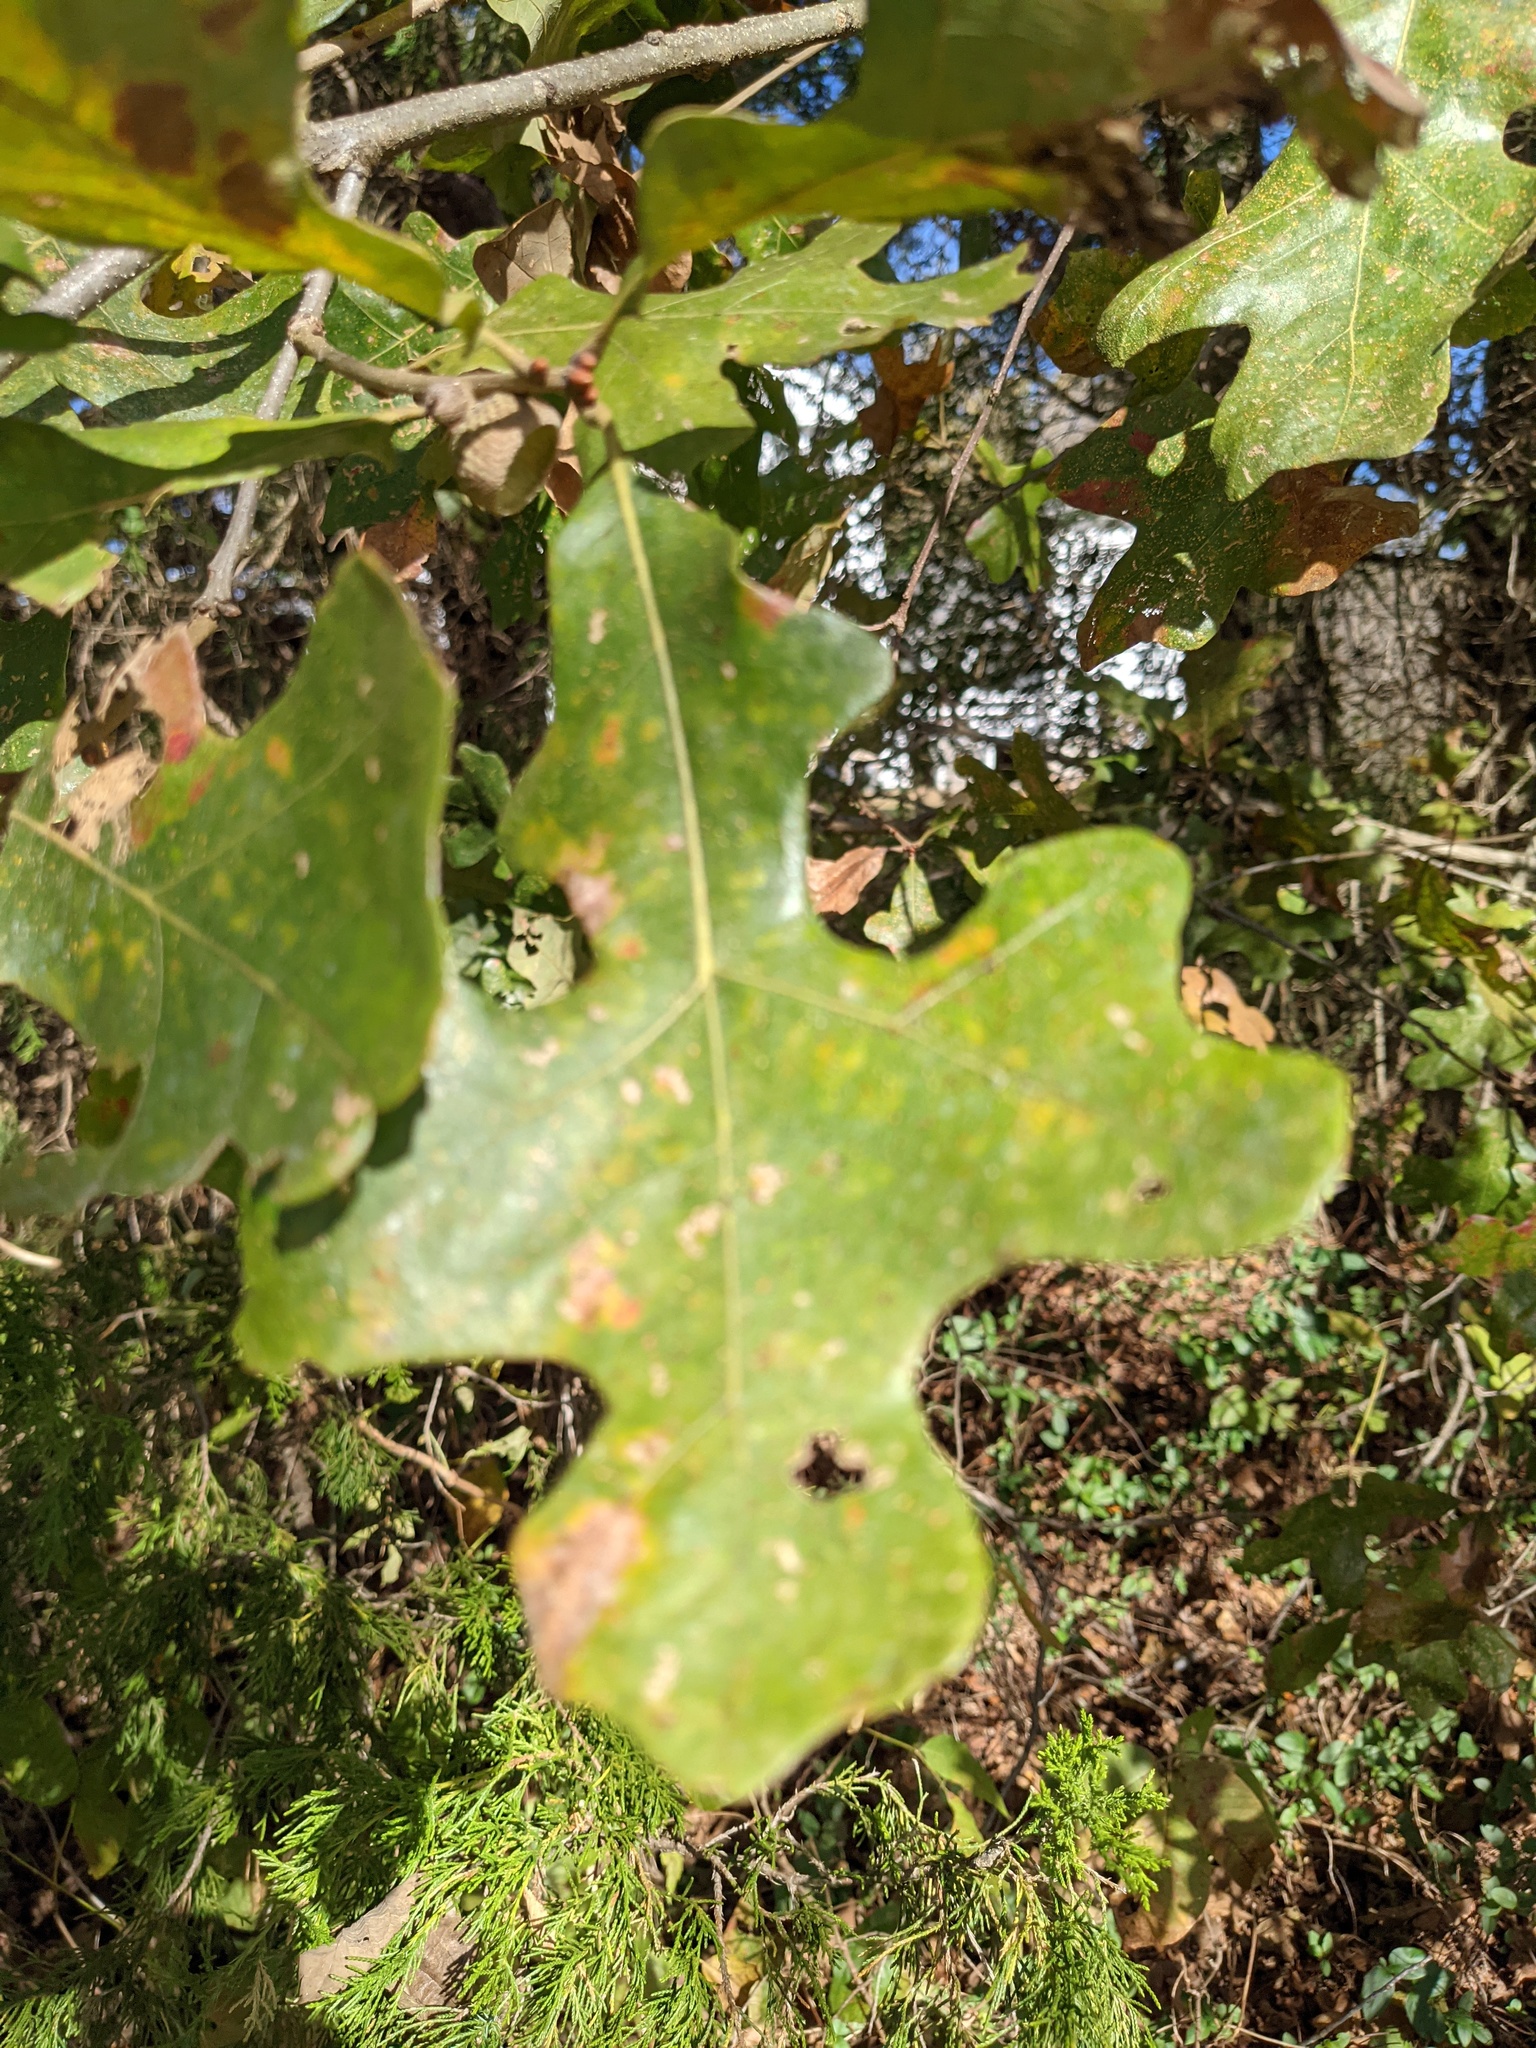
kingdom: Plantae
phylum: Tracheophyta
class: Magnoliopsida
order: Fagales
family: Fagaceae
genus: Quercus
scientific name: Quercus stellata
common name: Post oak
